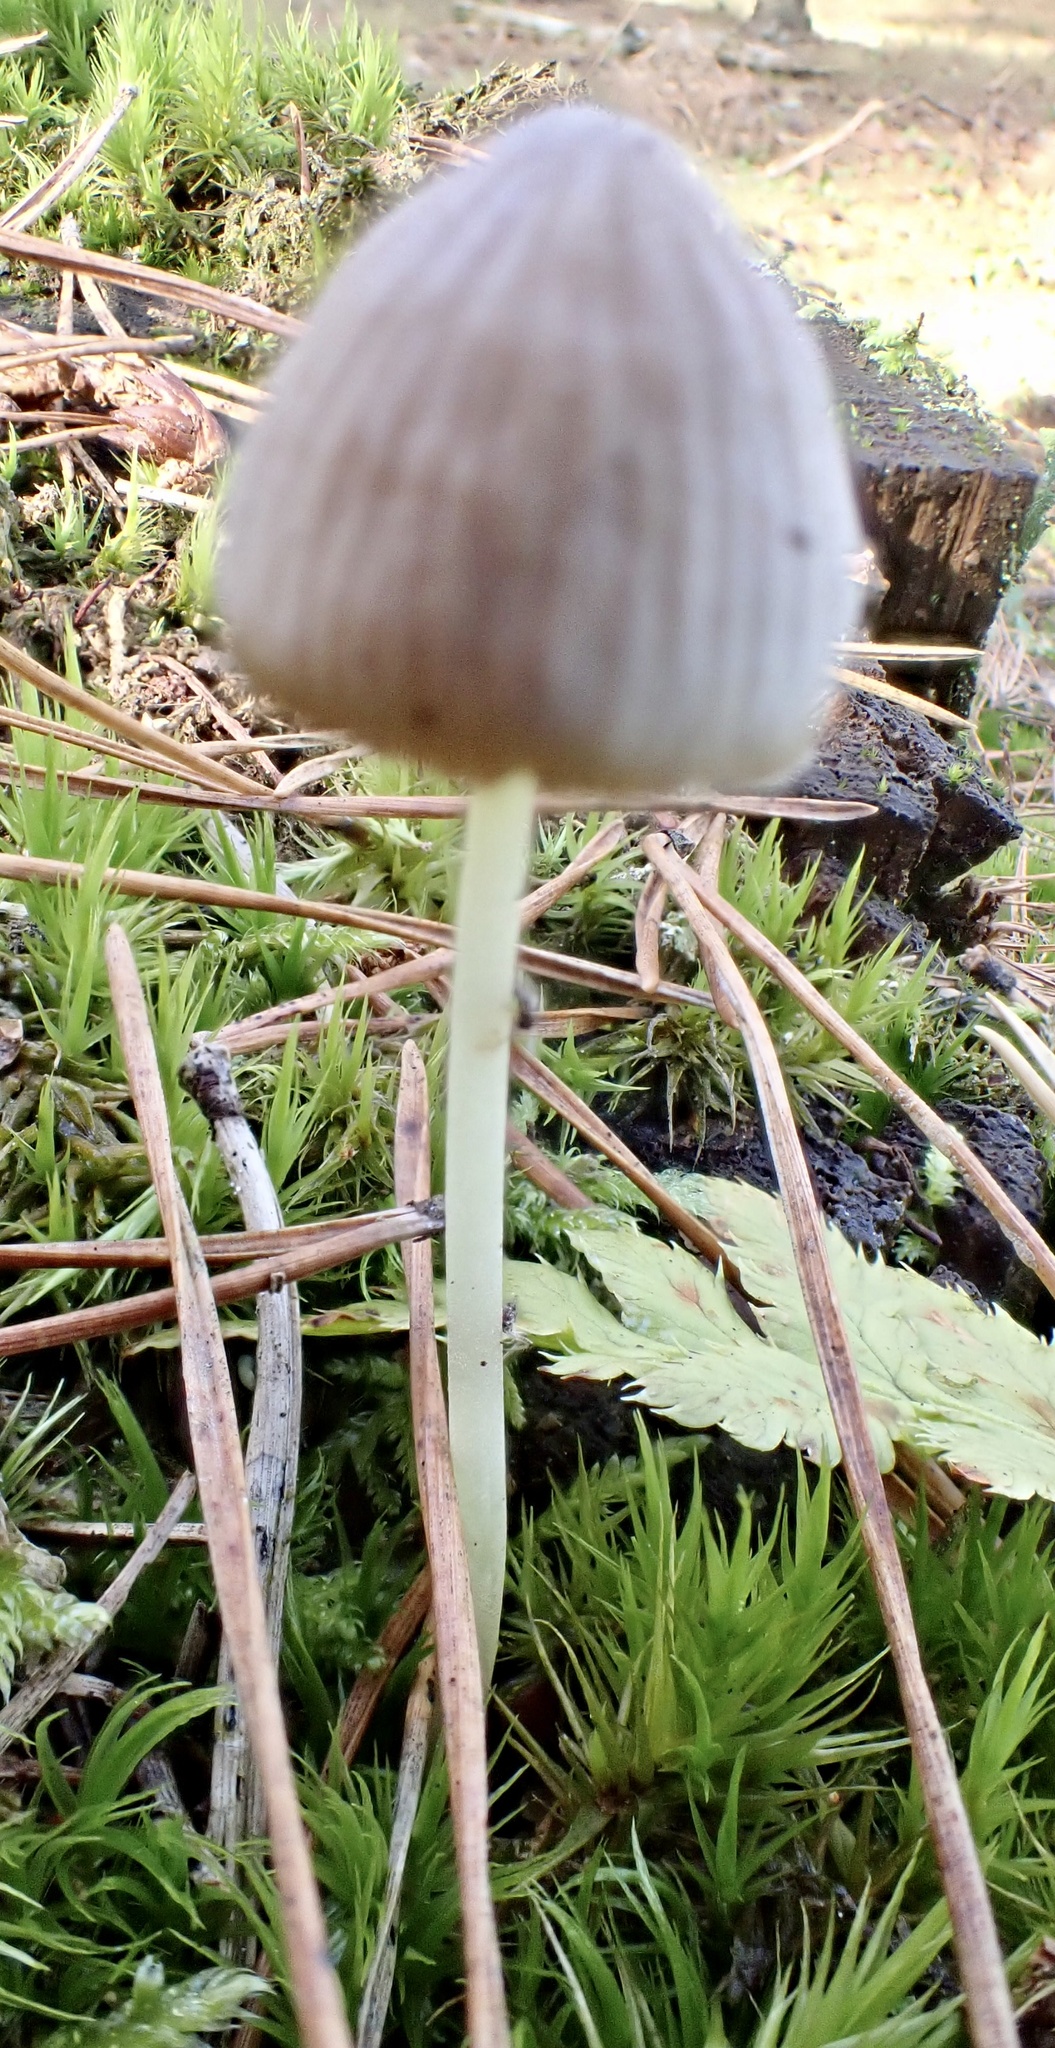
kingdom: Fungi
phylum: Basidiomycota
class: Agaricomycetes
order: Agaricales
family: Mycenaceae
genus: Mycena
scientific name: Mycena epipterygia
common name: Yellowleg bonnet
